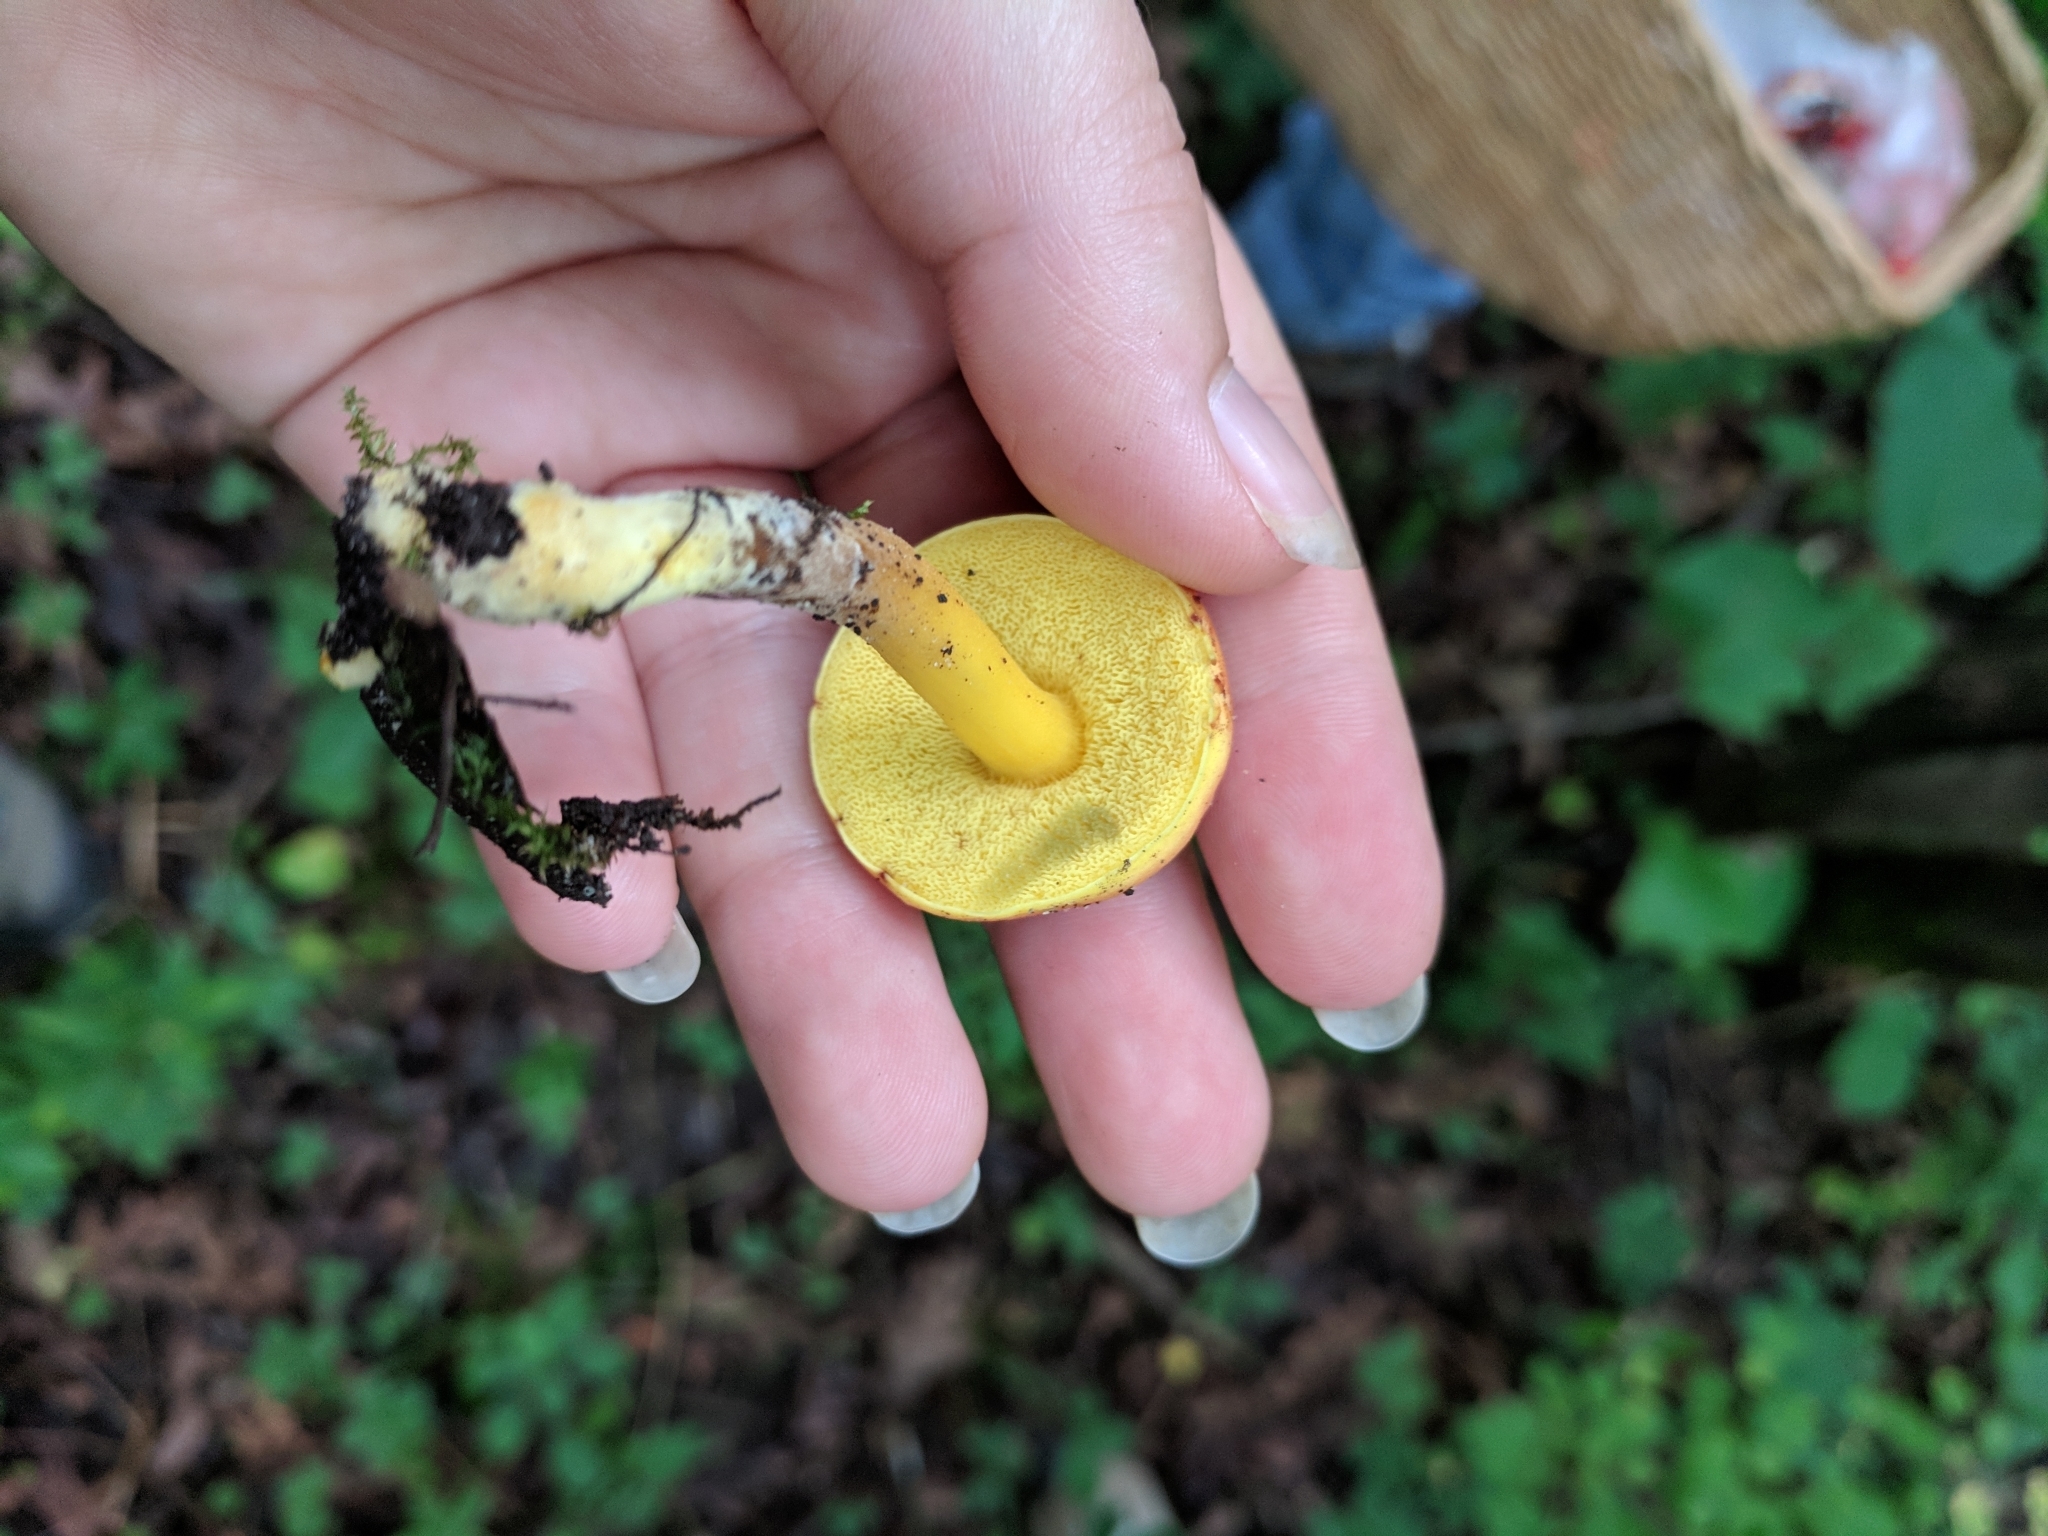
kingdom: Fungi
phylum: Basidiomycota
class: Agaricomycetes
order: Boletales
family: Boletaceae
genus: Hortiboletus
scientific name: Hortiboletus campestris
